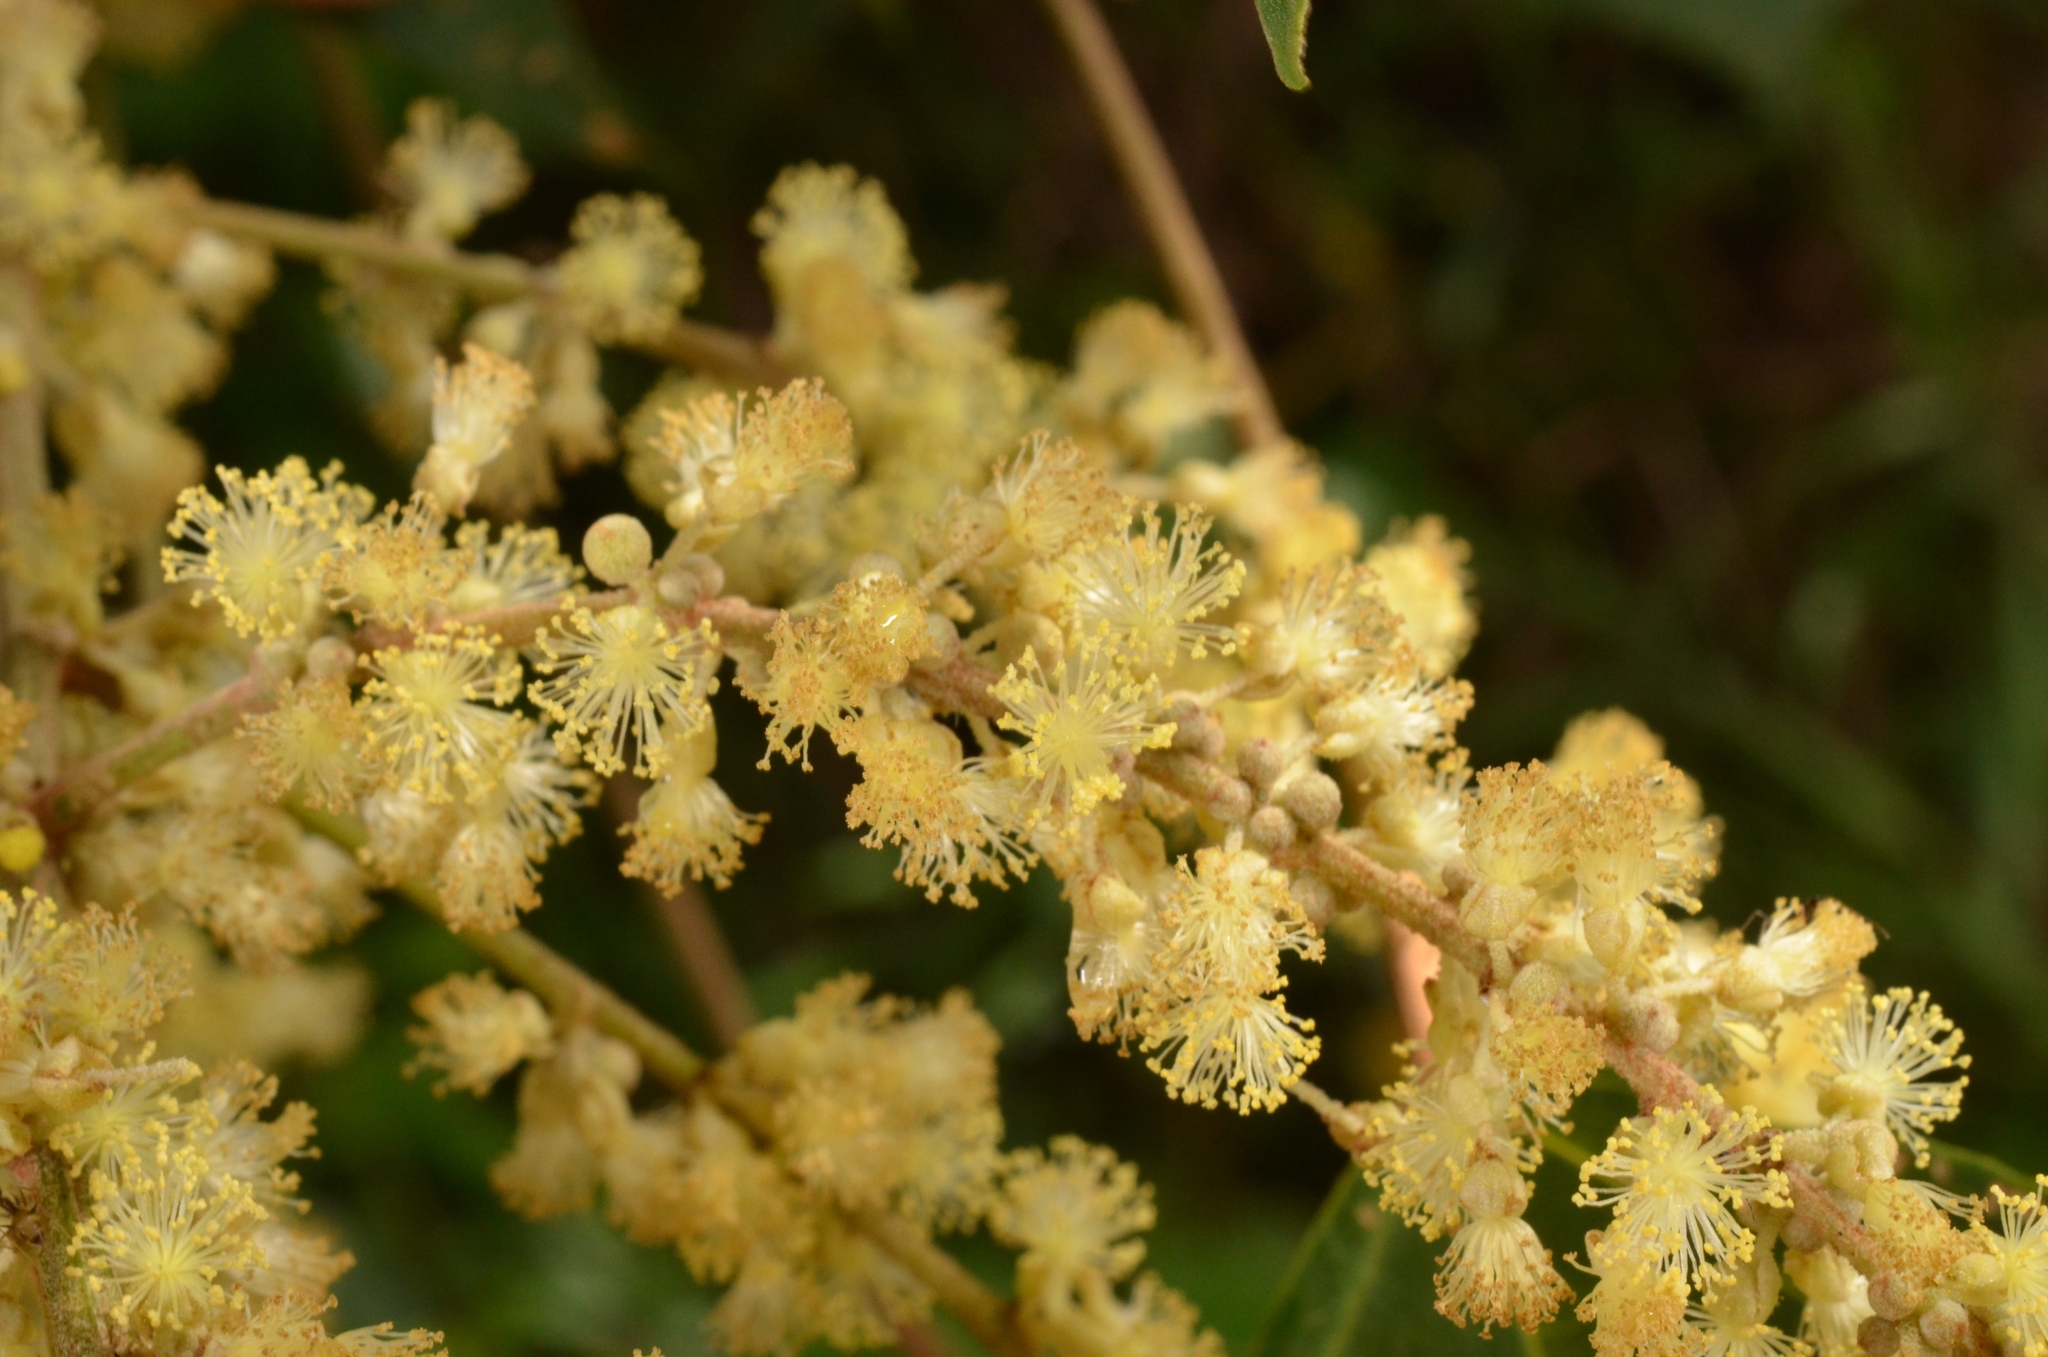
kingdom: Plantae
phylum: Tracheophyta
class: Magnoliopsida
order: Malpighiales
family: Euphorbiaceae
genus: Mallotus
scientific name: Mallotus paniculatus
